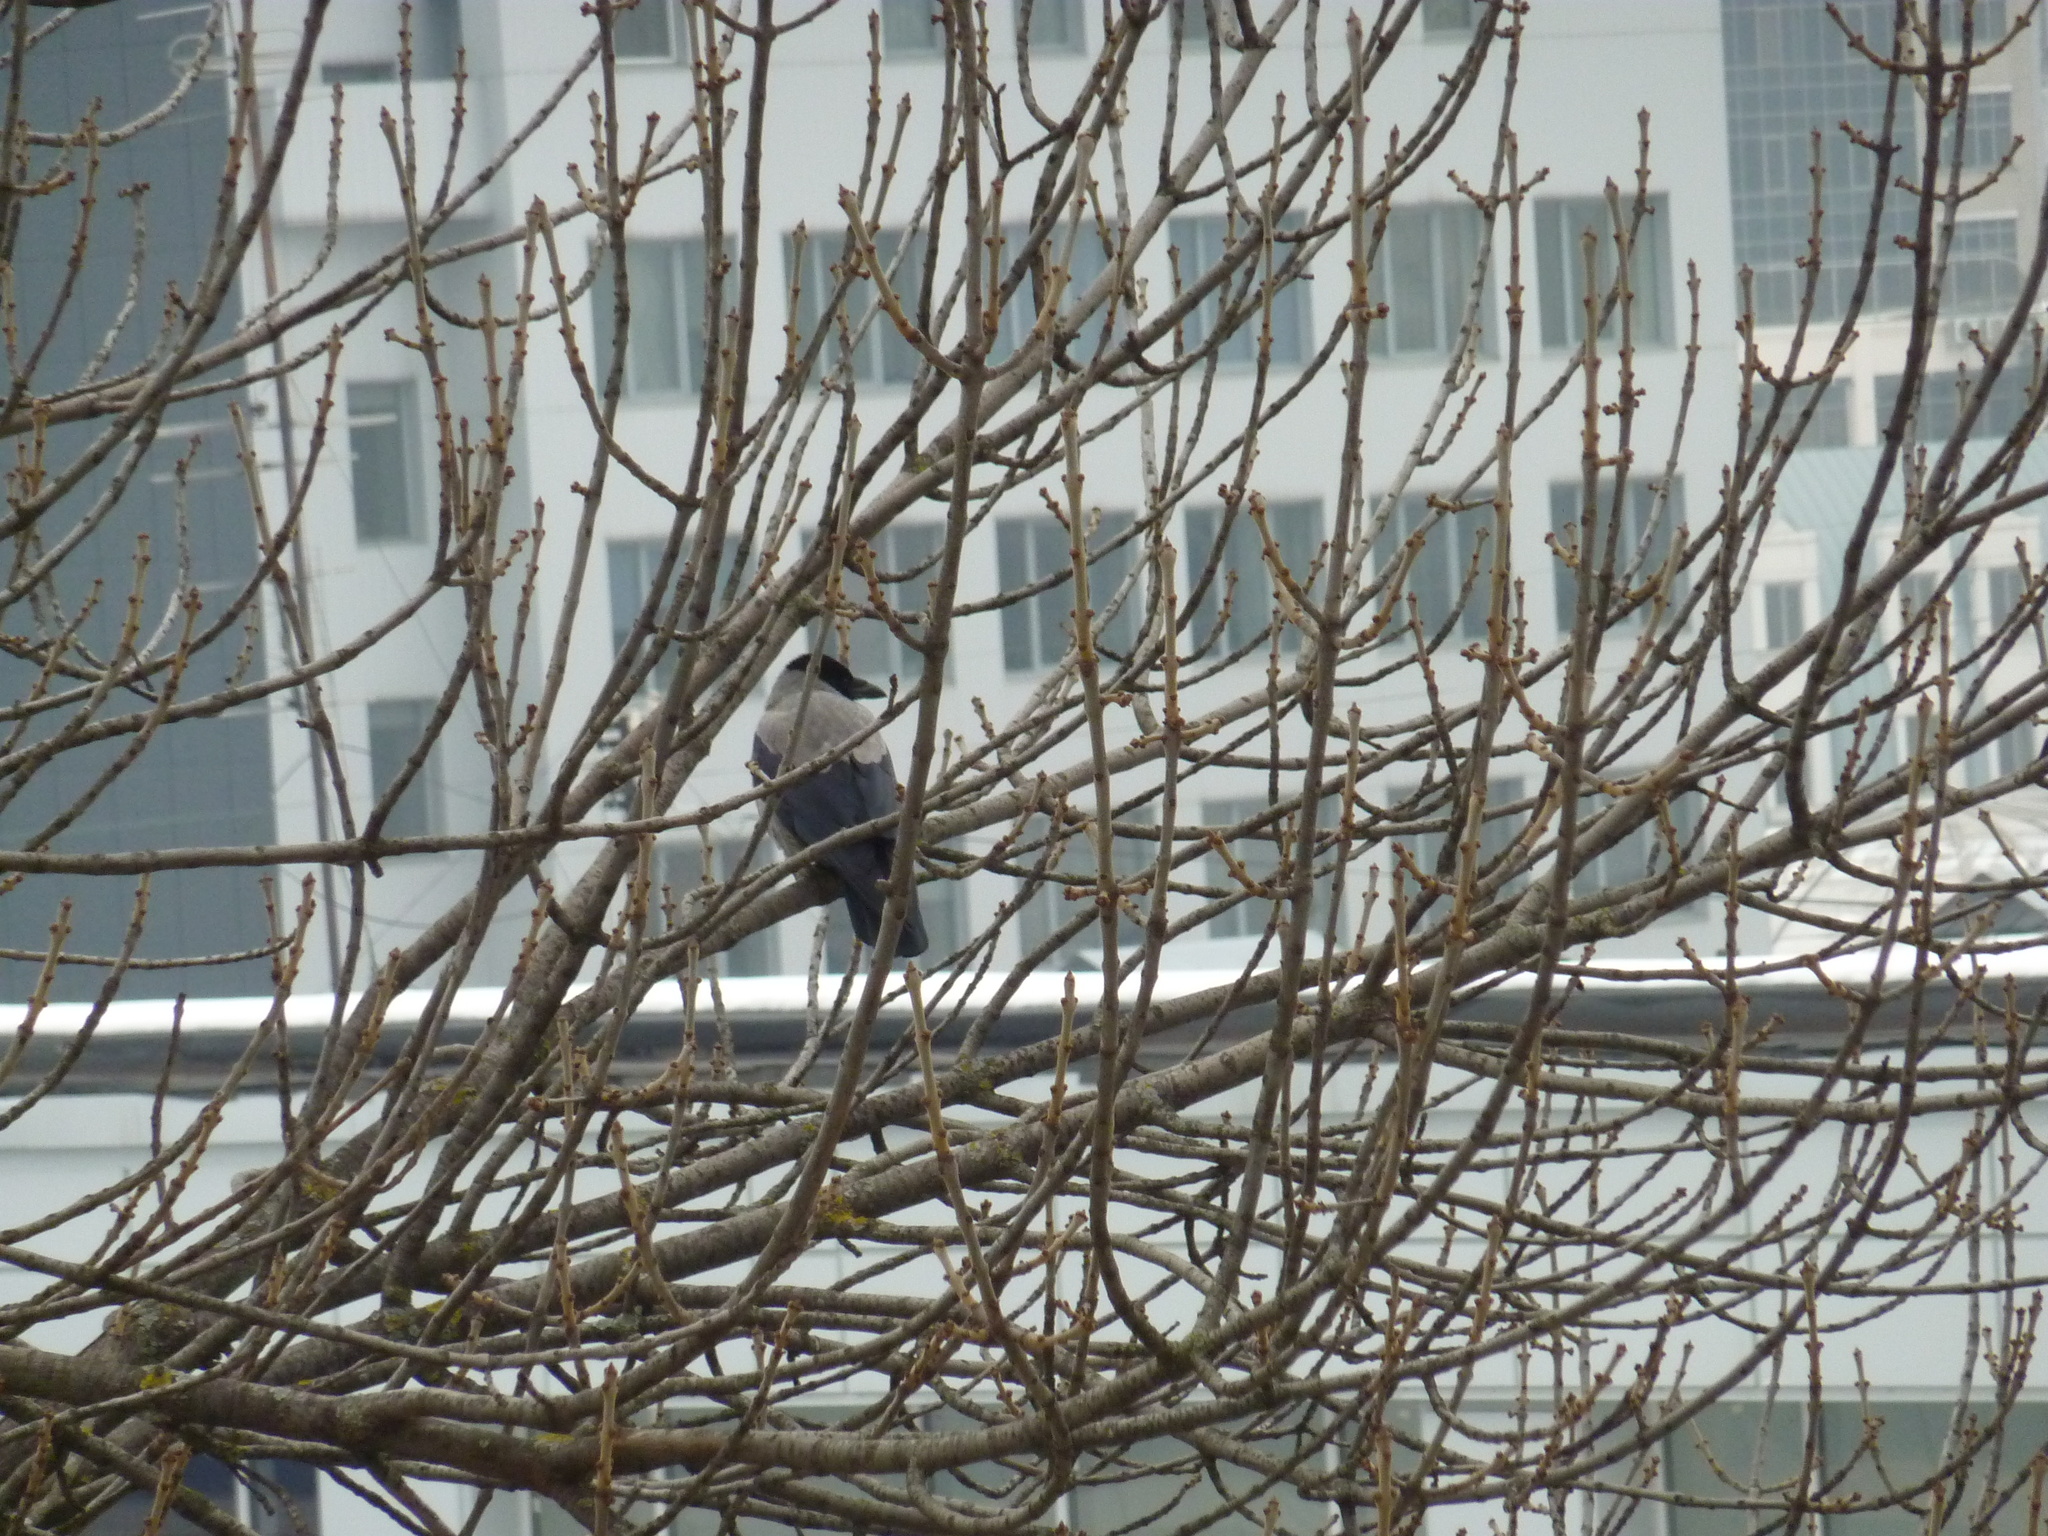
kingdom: Animalia
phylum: Chordata
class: Aves
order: Passeriformes
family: Corvidae
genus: Corvus
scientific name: Corvus cornix
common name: Hooded crow
